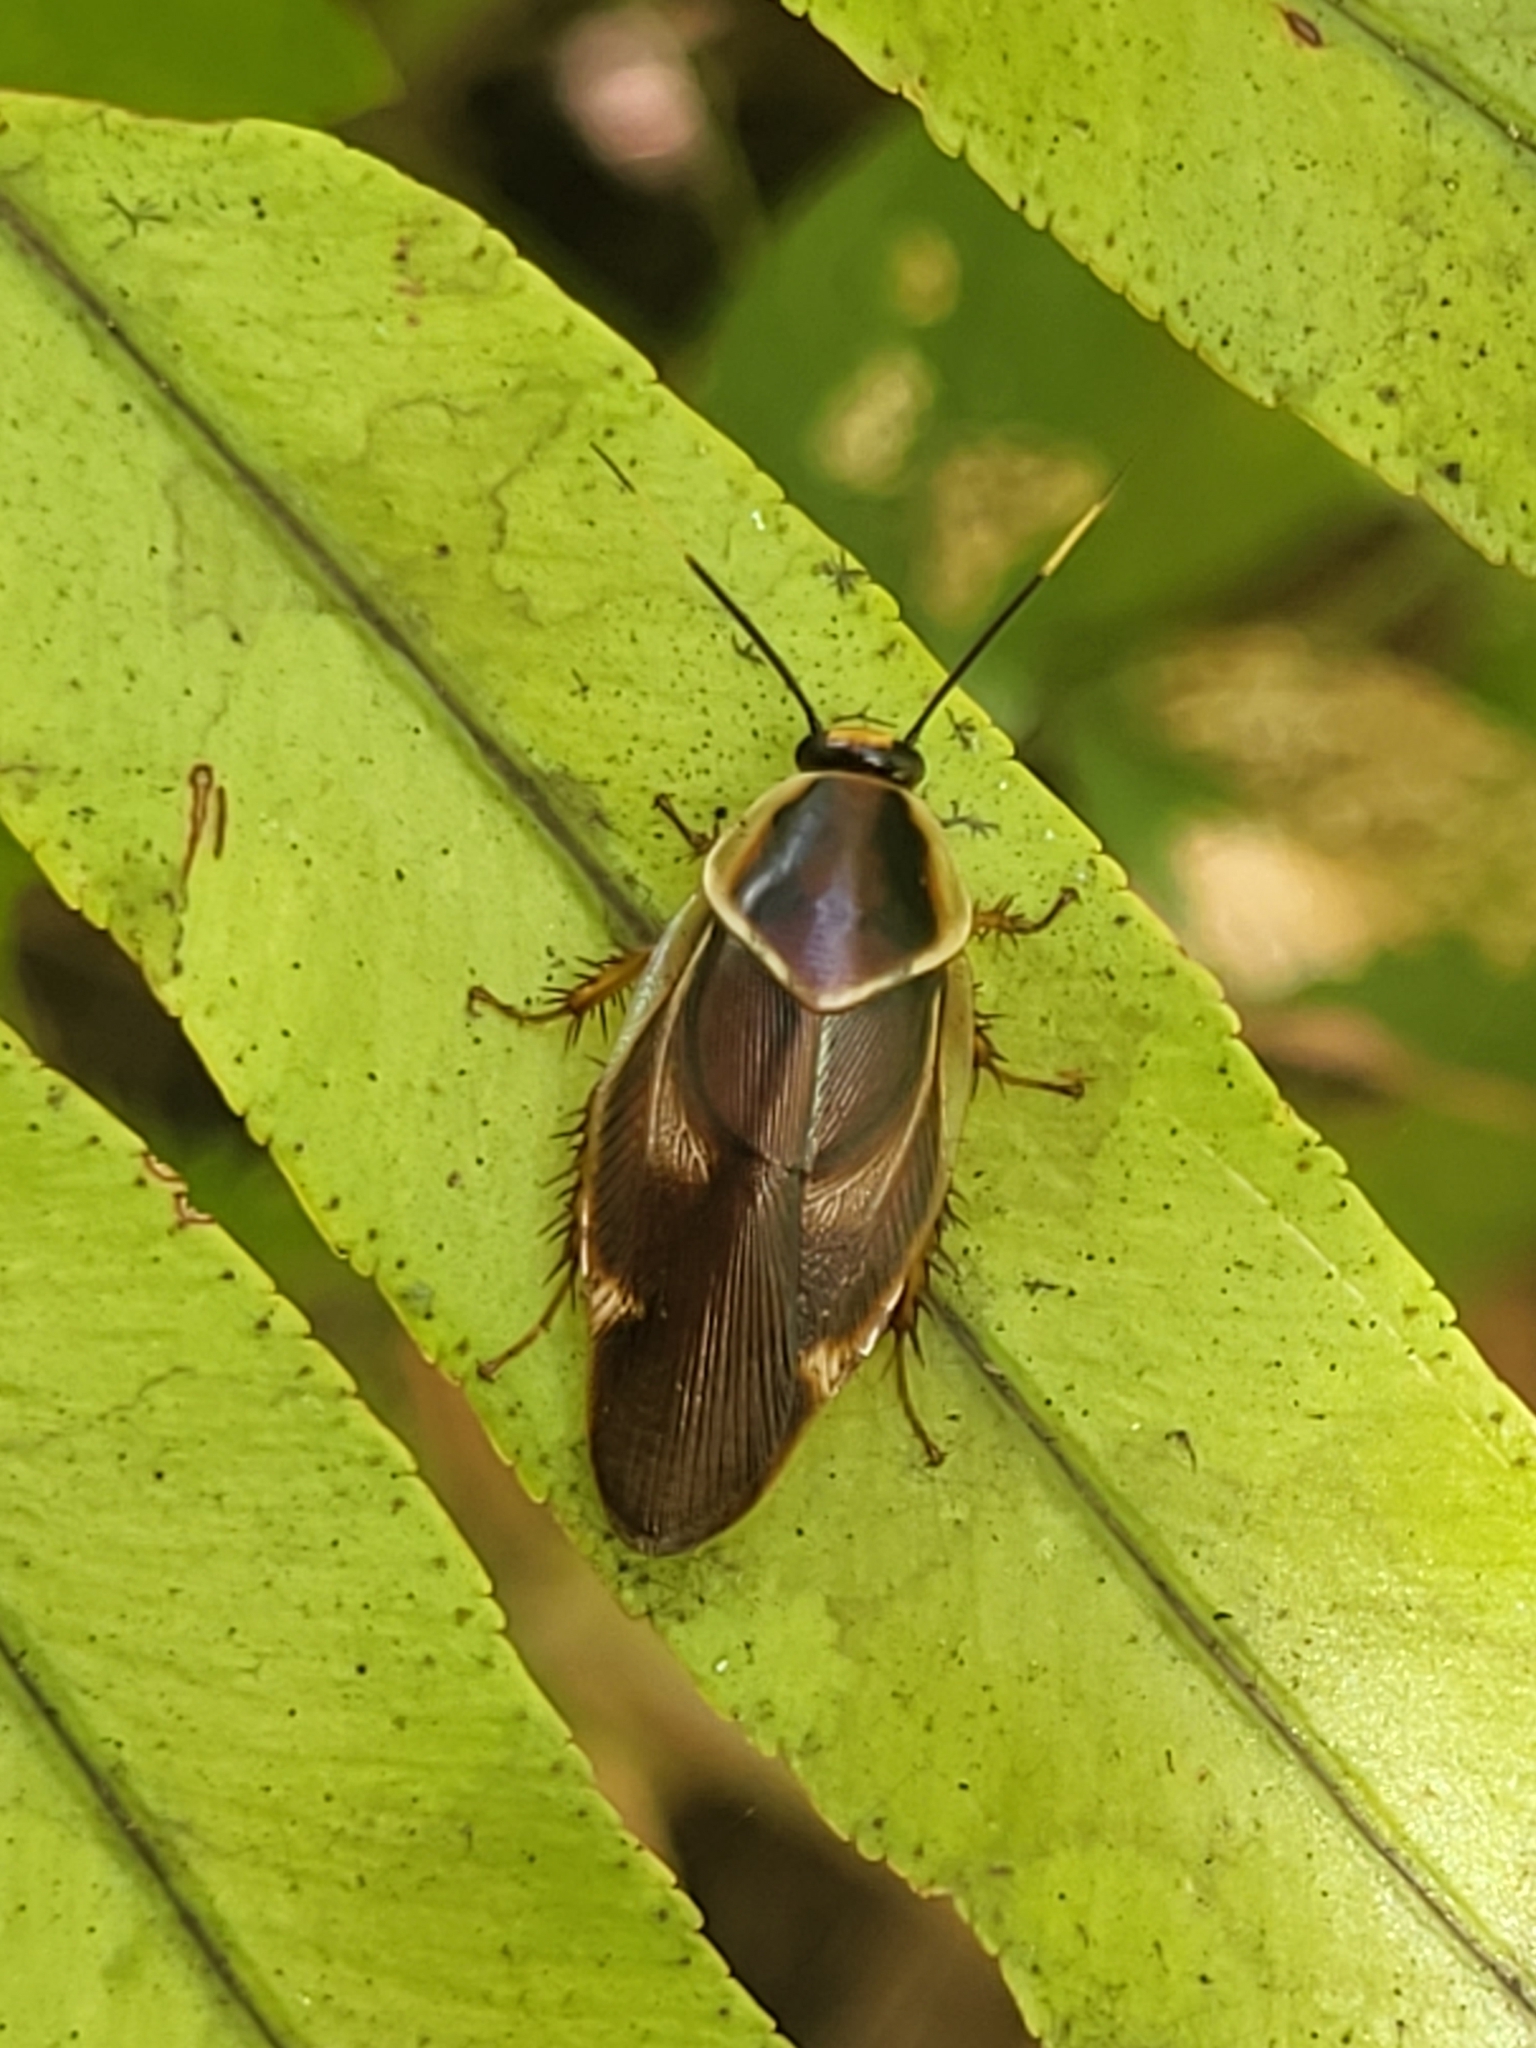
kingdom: Animalia
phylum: Arthropoda
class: Insecta
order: Blattodea
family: Blaberidae
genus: Eustegasta
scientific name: Eustegasta variegata
